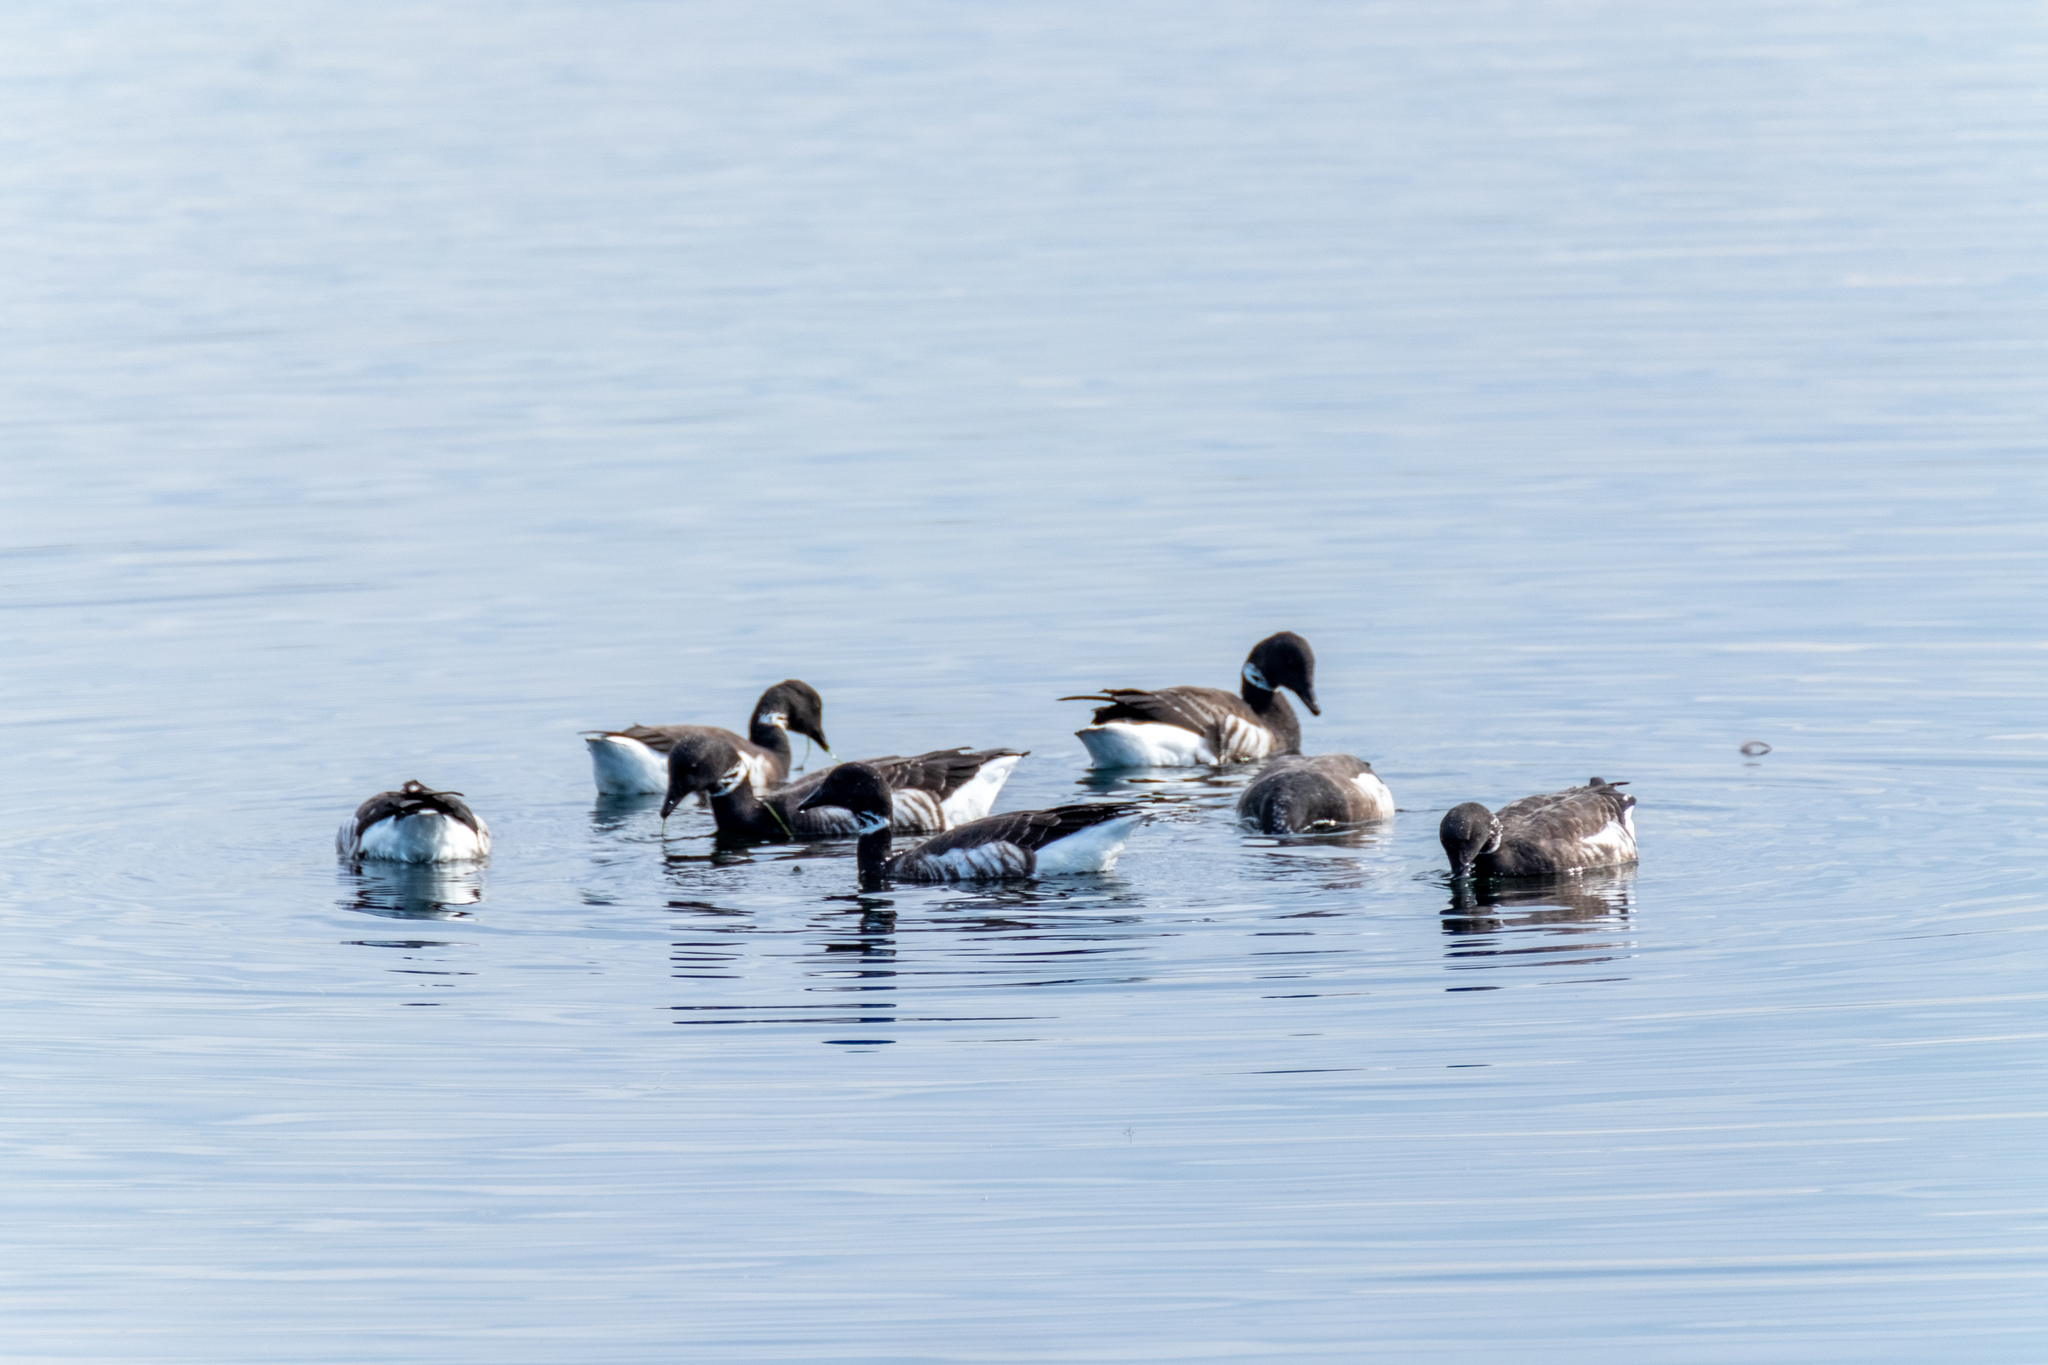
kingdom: Animalia
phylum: Chordata
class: Aves
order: Anseriformes
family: Anatidae
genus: Branta
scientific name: Branta bernicla
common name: Brant goose
